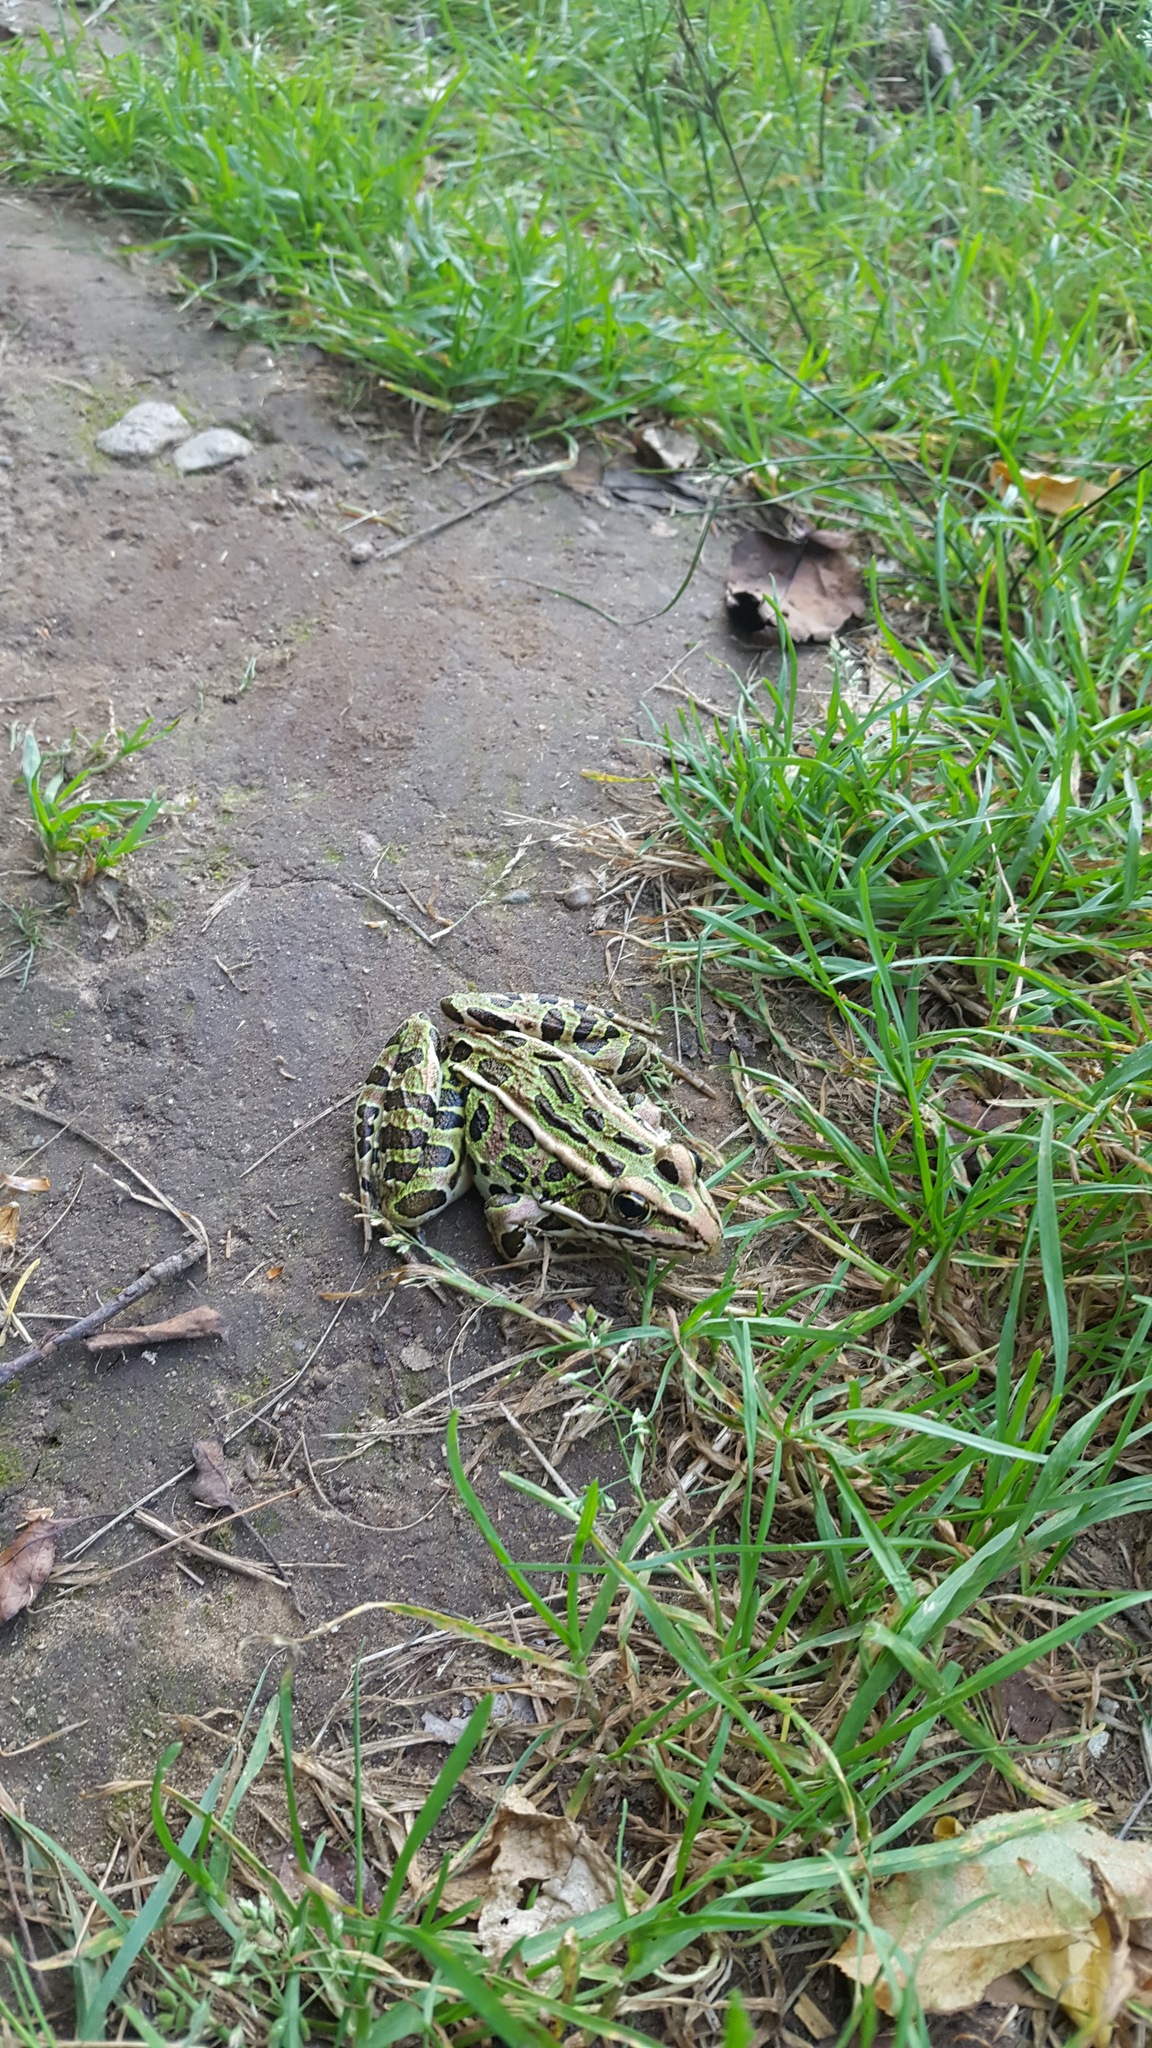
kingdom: Animalia
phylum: Chordata
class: Amphibia
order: Anura
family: Ranidae
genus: Lithobates
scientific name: Lithobates pipiens
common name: Northern leopard frog
